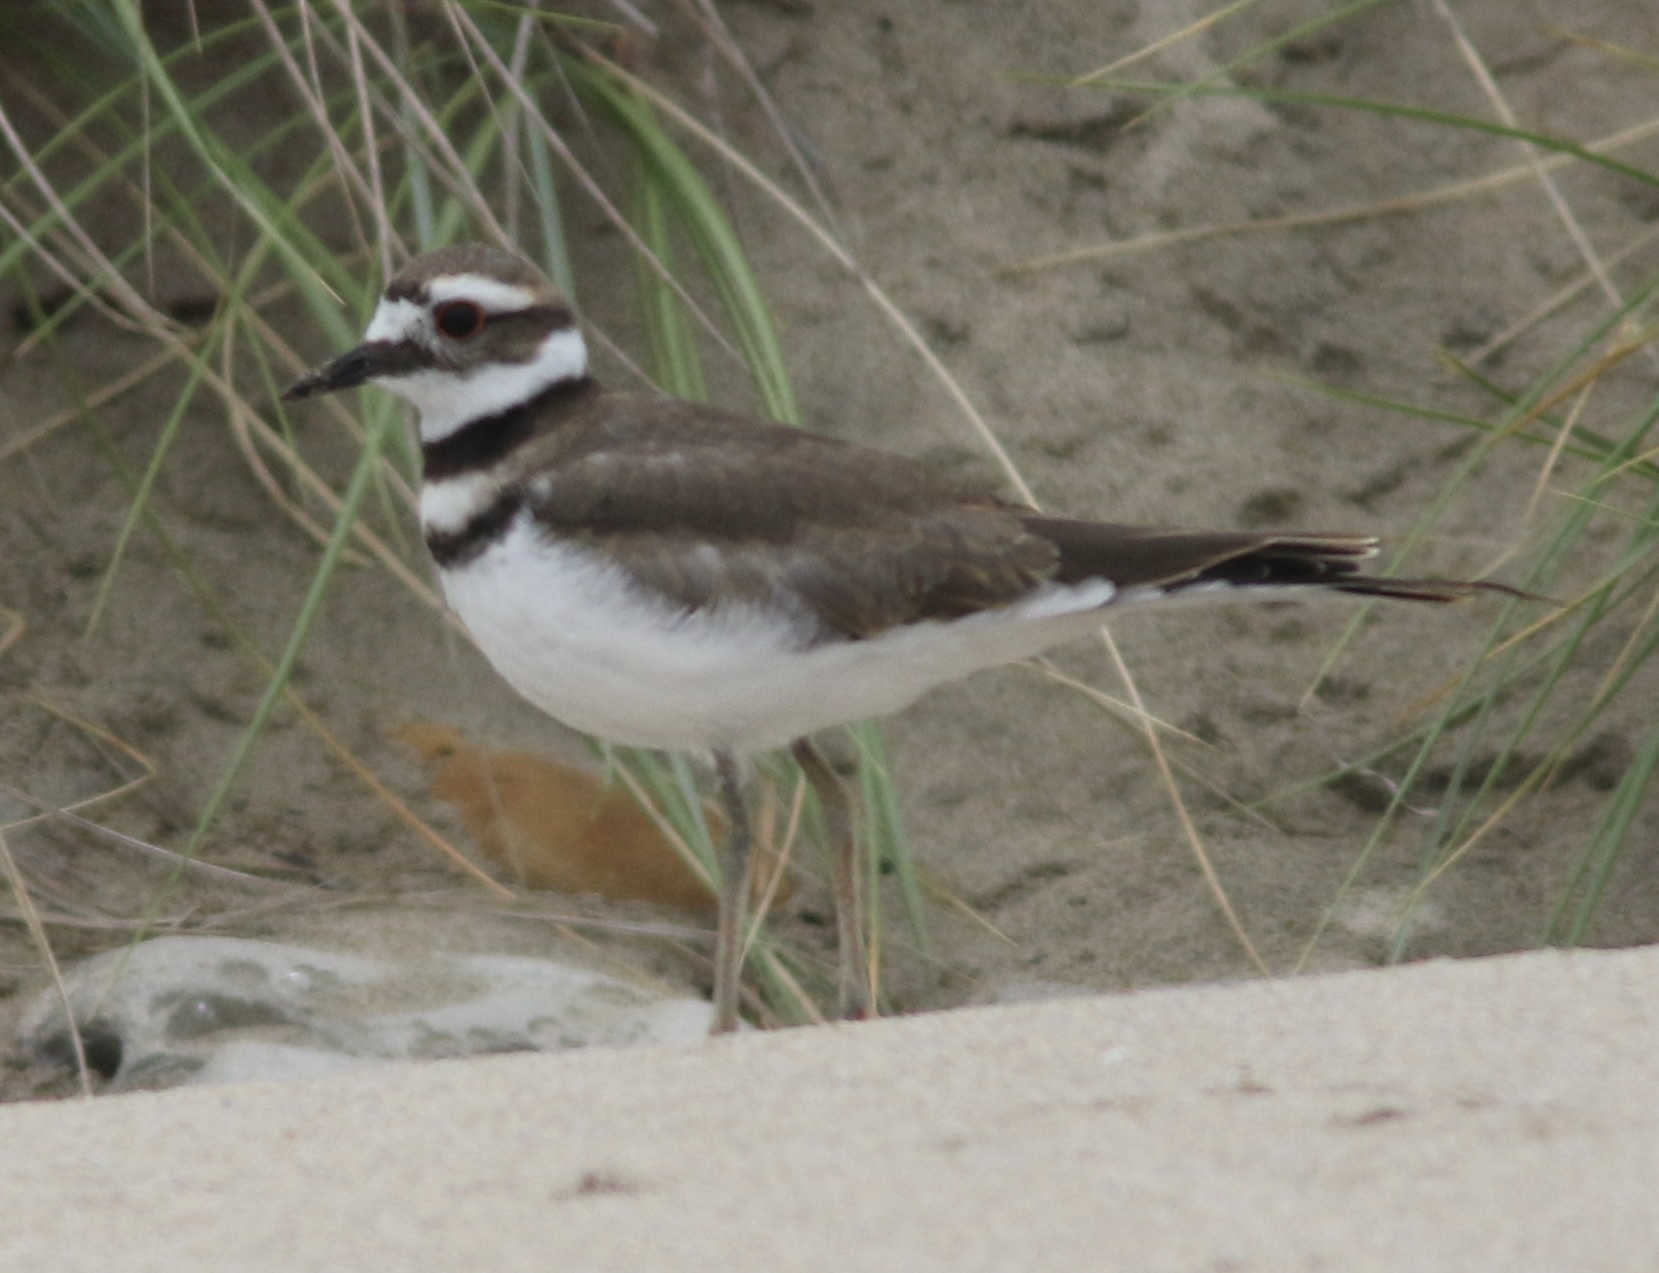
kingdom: Animalia
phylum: Chordata
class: Aves
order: Charadriiformes
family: Charadriidae
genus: Charadrius
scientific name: Charadrius vociferus
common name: Killdeer
